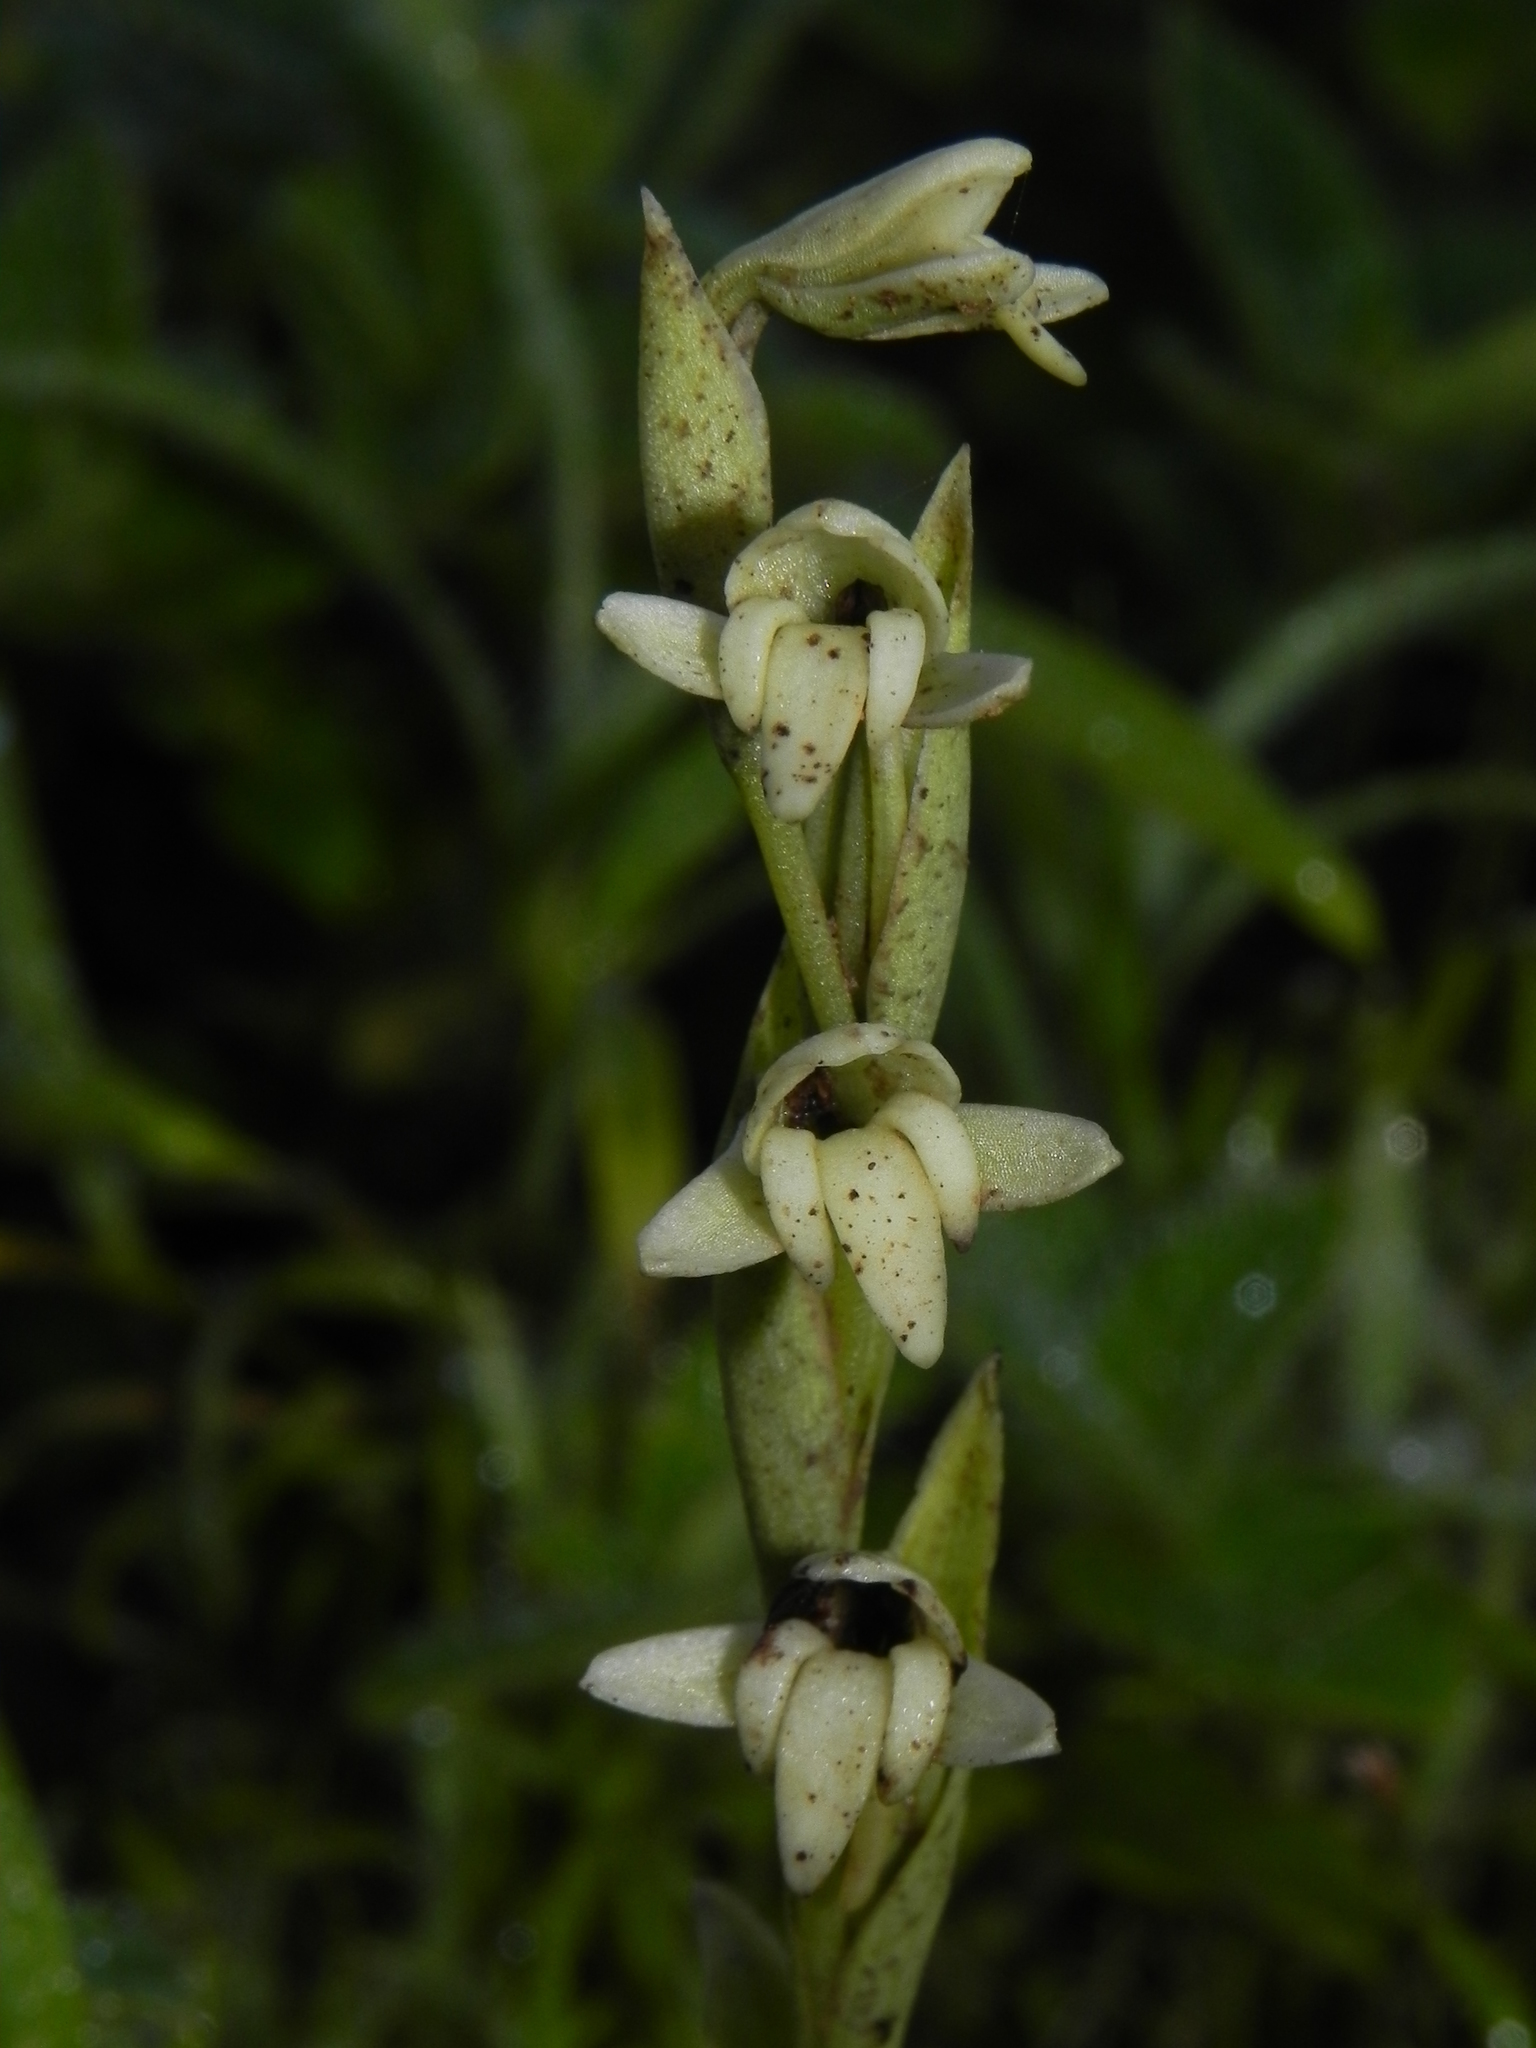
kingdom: Plantae
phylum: Tracheophyta
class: Liliopsida
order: Asparagales
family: Orchidaceae
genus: Habenaria
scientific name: Habenaria heyneana
